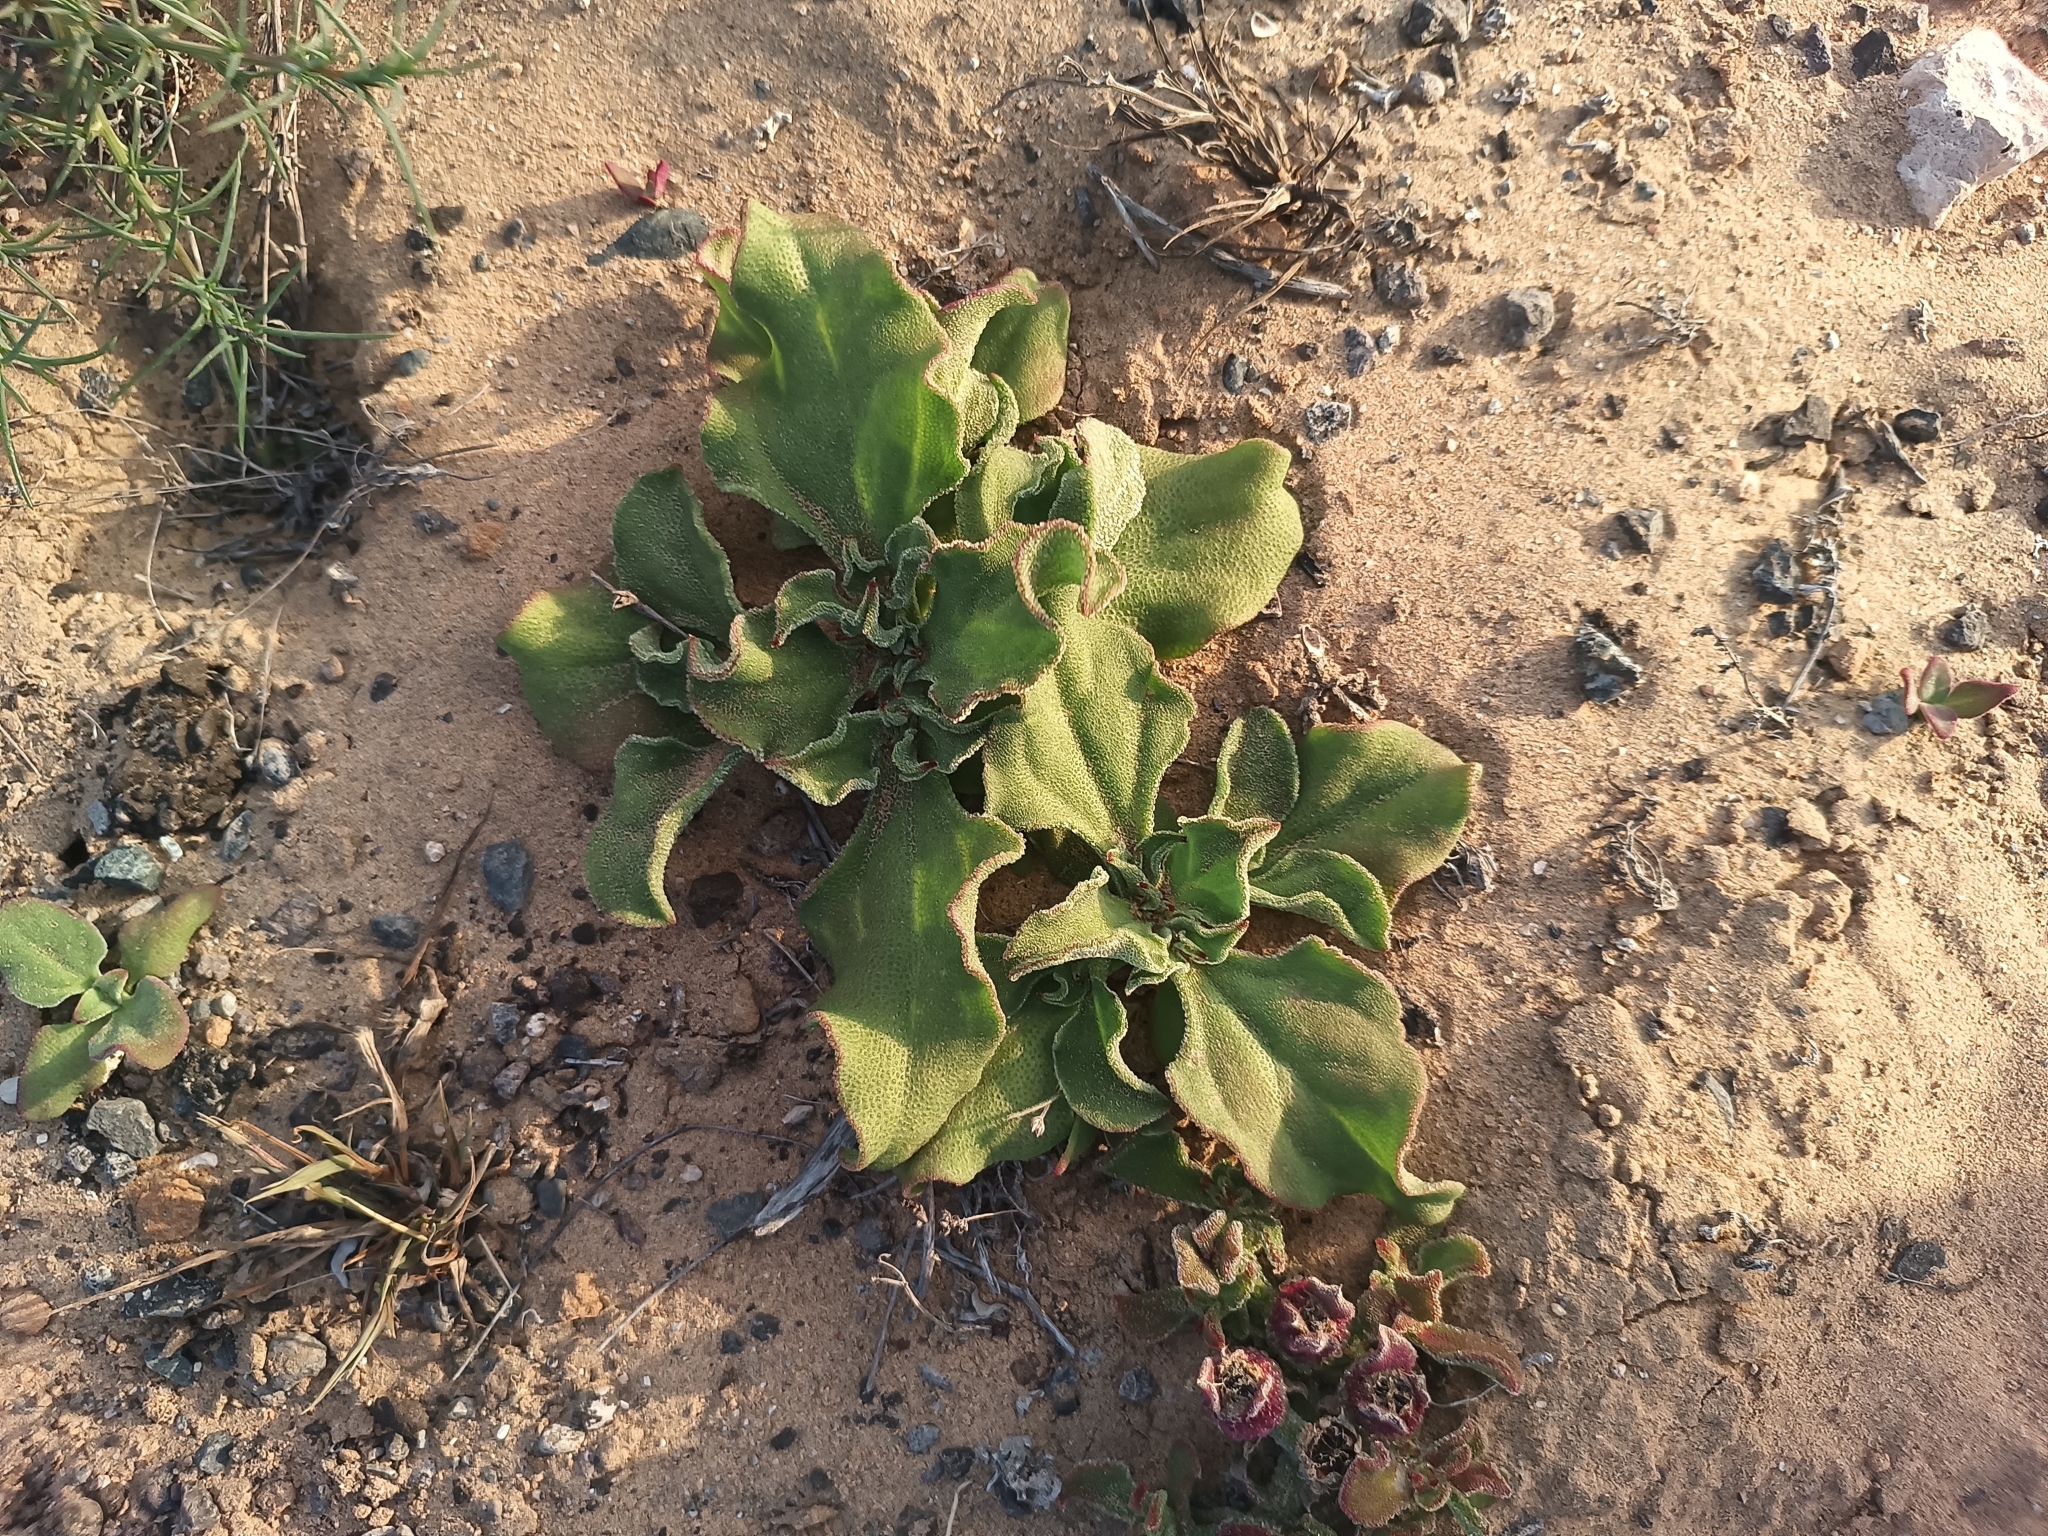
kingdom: Plantae
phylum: Tracheophyta
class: Magnoliopsida
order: Caryophyllales
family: Aizoaceae
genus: Mesembryanthemum
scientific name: Mesembryanthemum crystallinum
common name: Common iceplant
